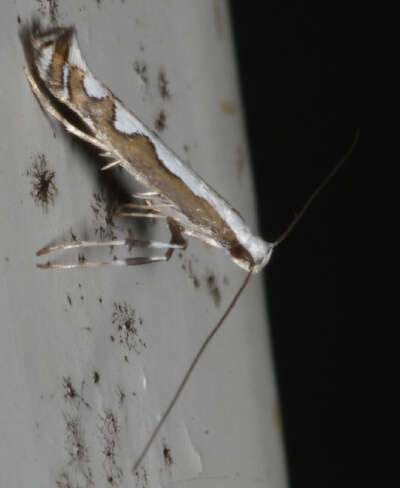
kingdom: Animalia
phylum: Arthropoda
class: Insecta
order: Lepidoptera
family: Gracillariidae
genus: Dialectica
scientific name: Dialectica scalariella
